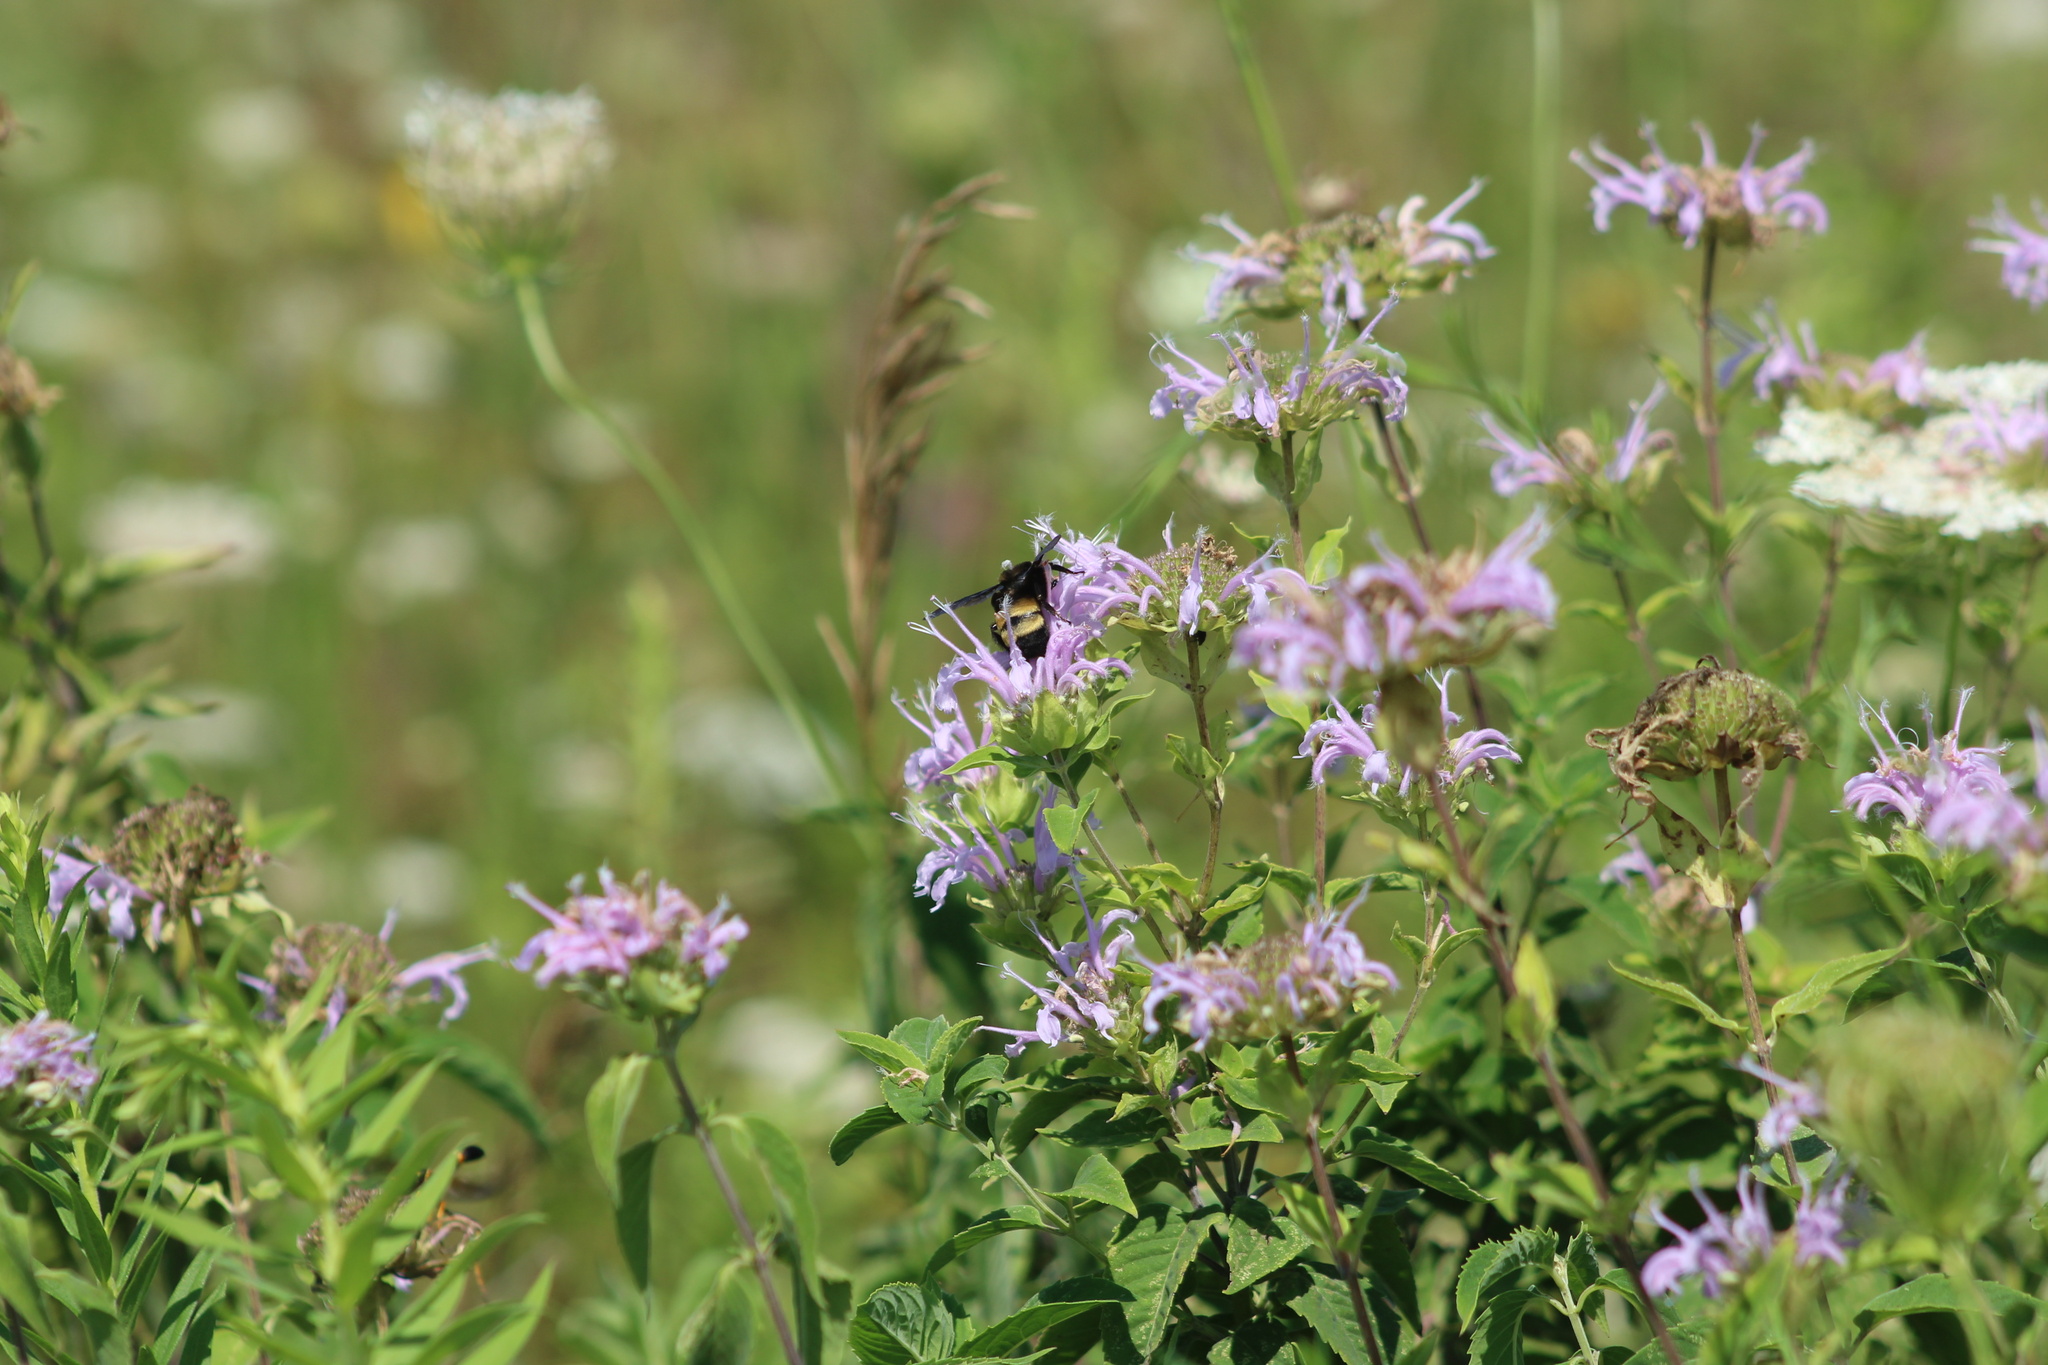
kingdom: Animalia
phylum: Arthropoda
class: Insecta
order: Hymenoptera
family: Apidae
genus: Bombus
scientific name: Bombus auricomus
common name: Black and gold bumble bee
